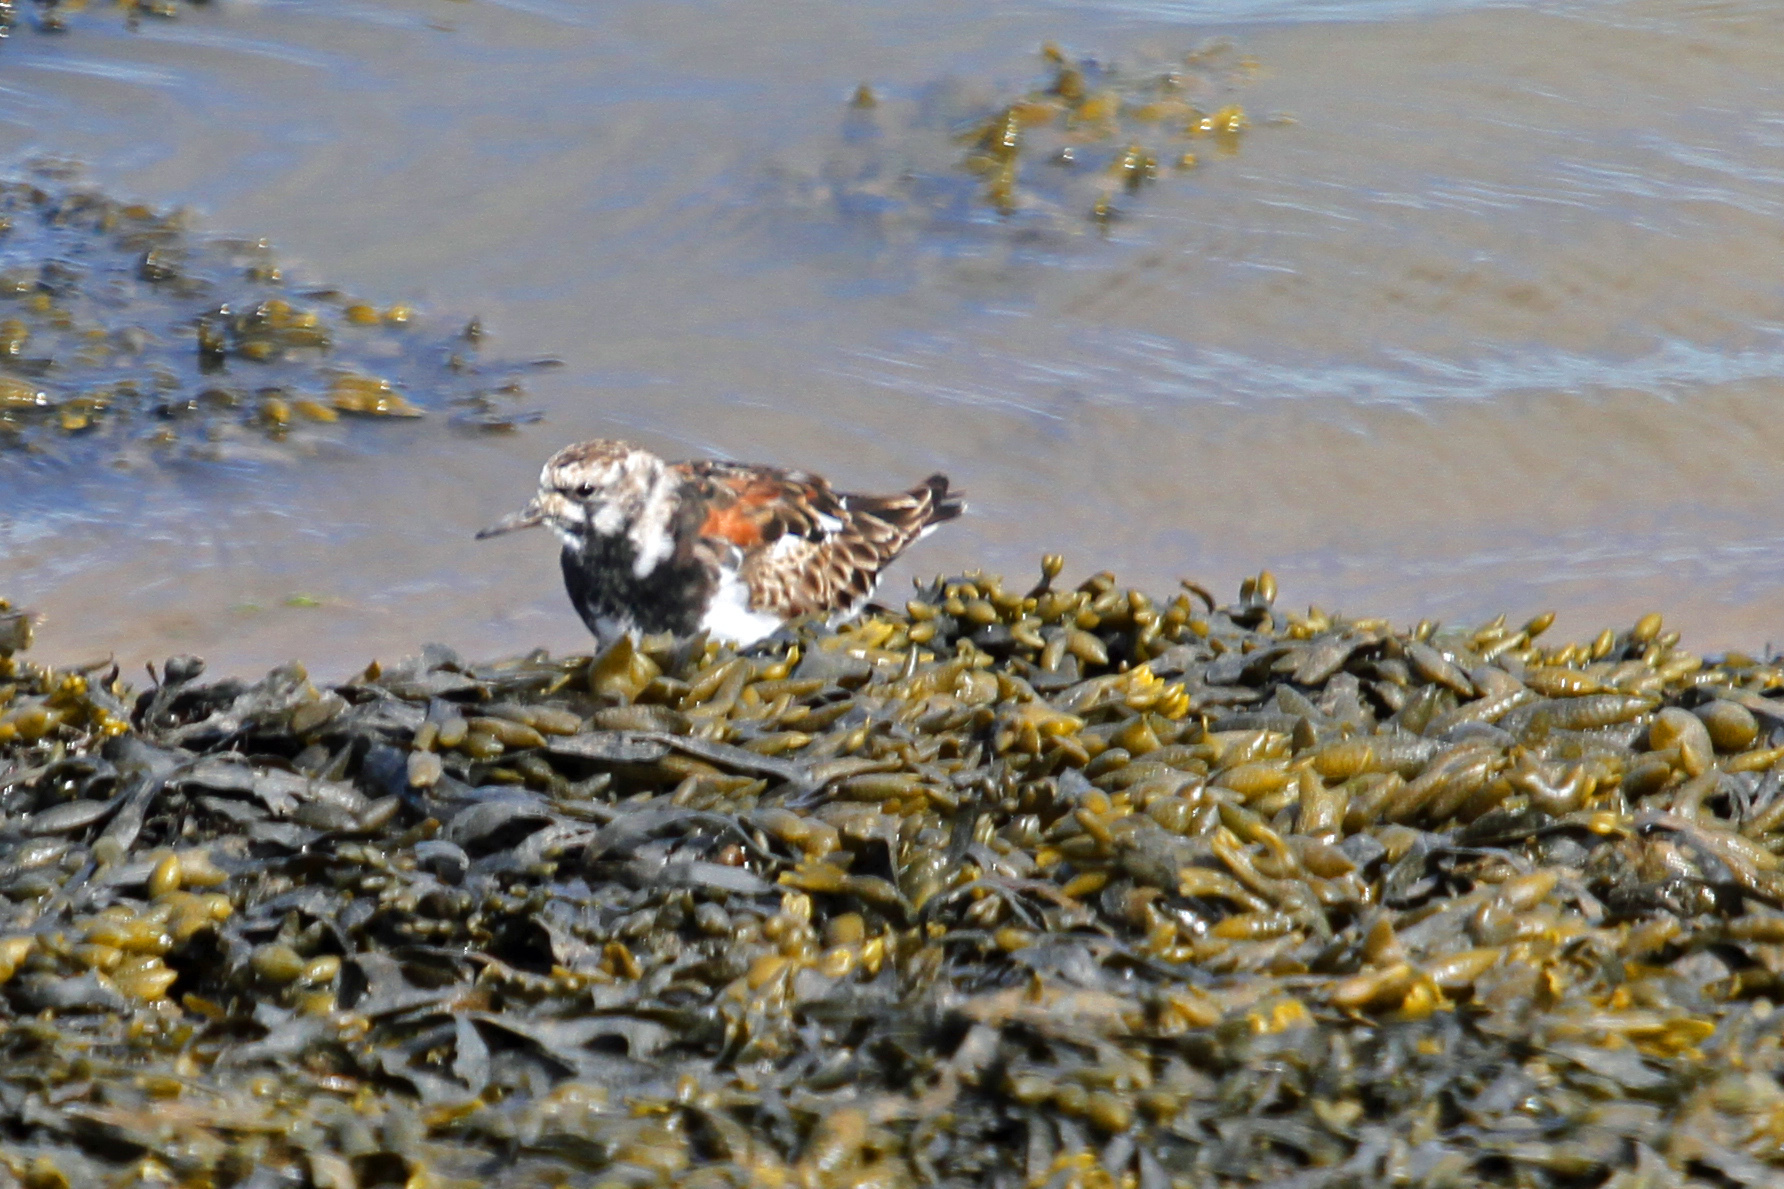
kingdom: Animalia
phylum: Chordata
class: Aves
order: Charadriiformes
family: Scolopacidae
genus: Arenaria
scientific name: Arenaria interpres
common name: Ruddy turnstone
